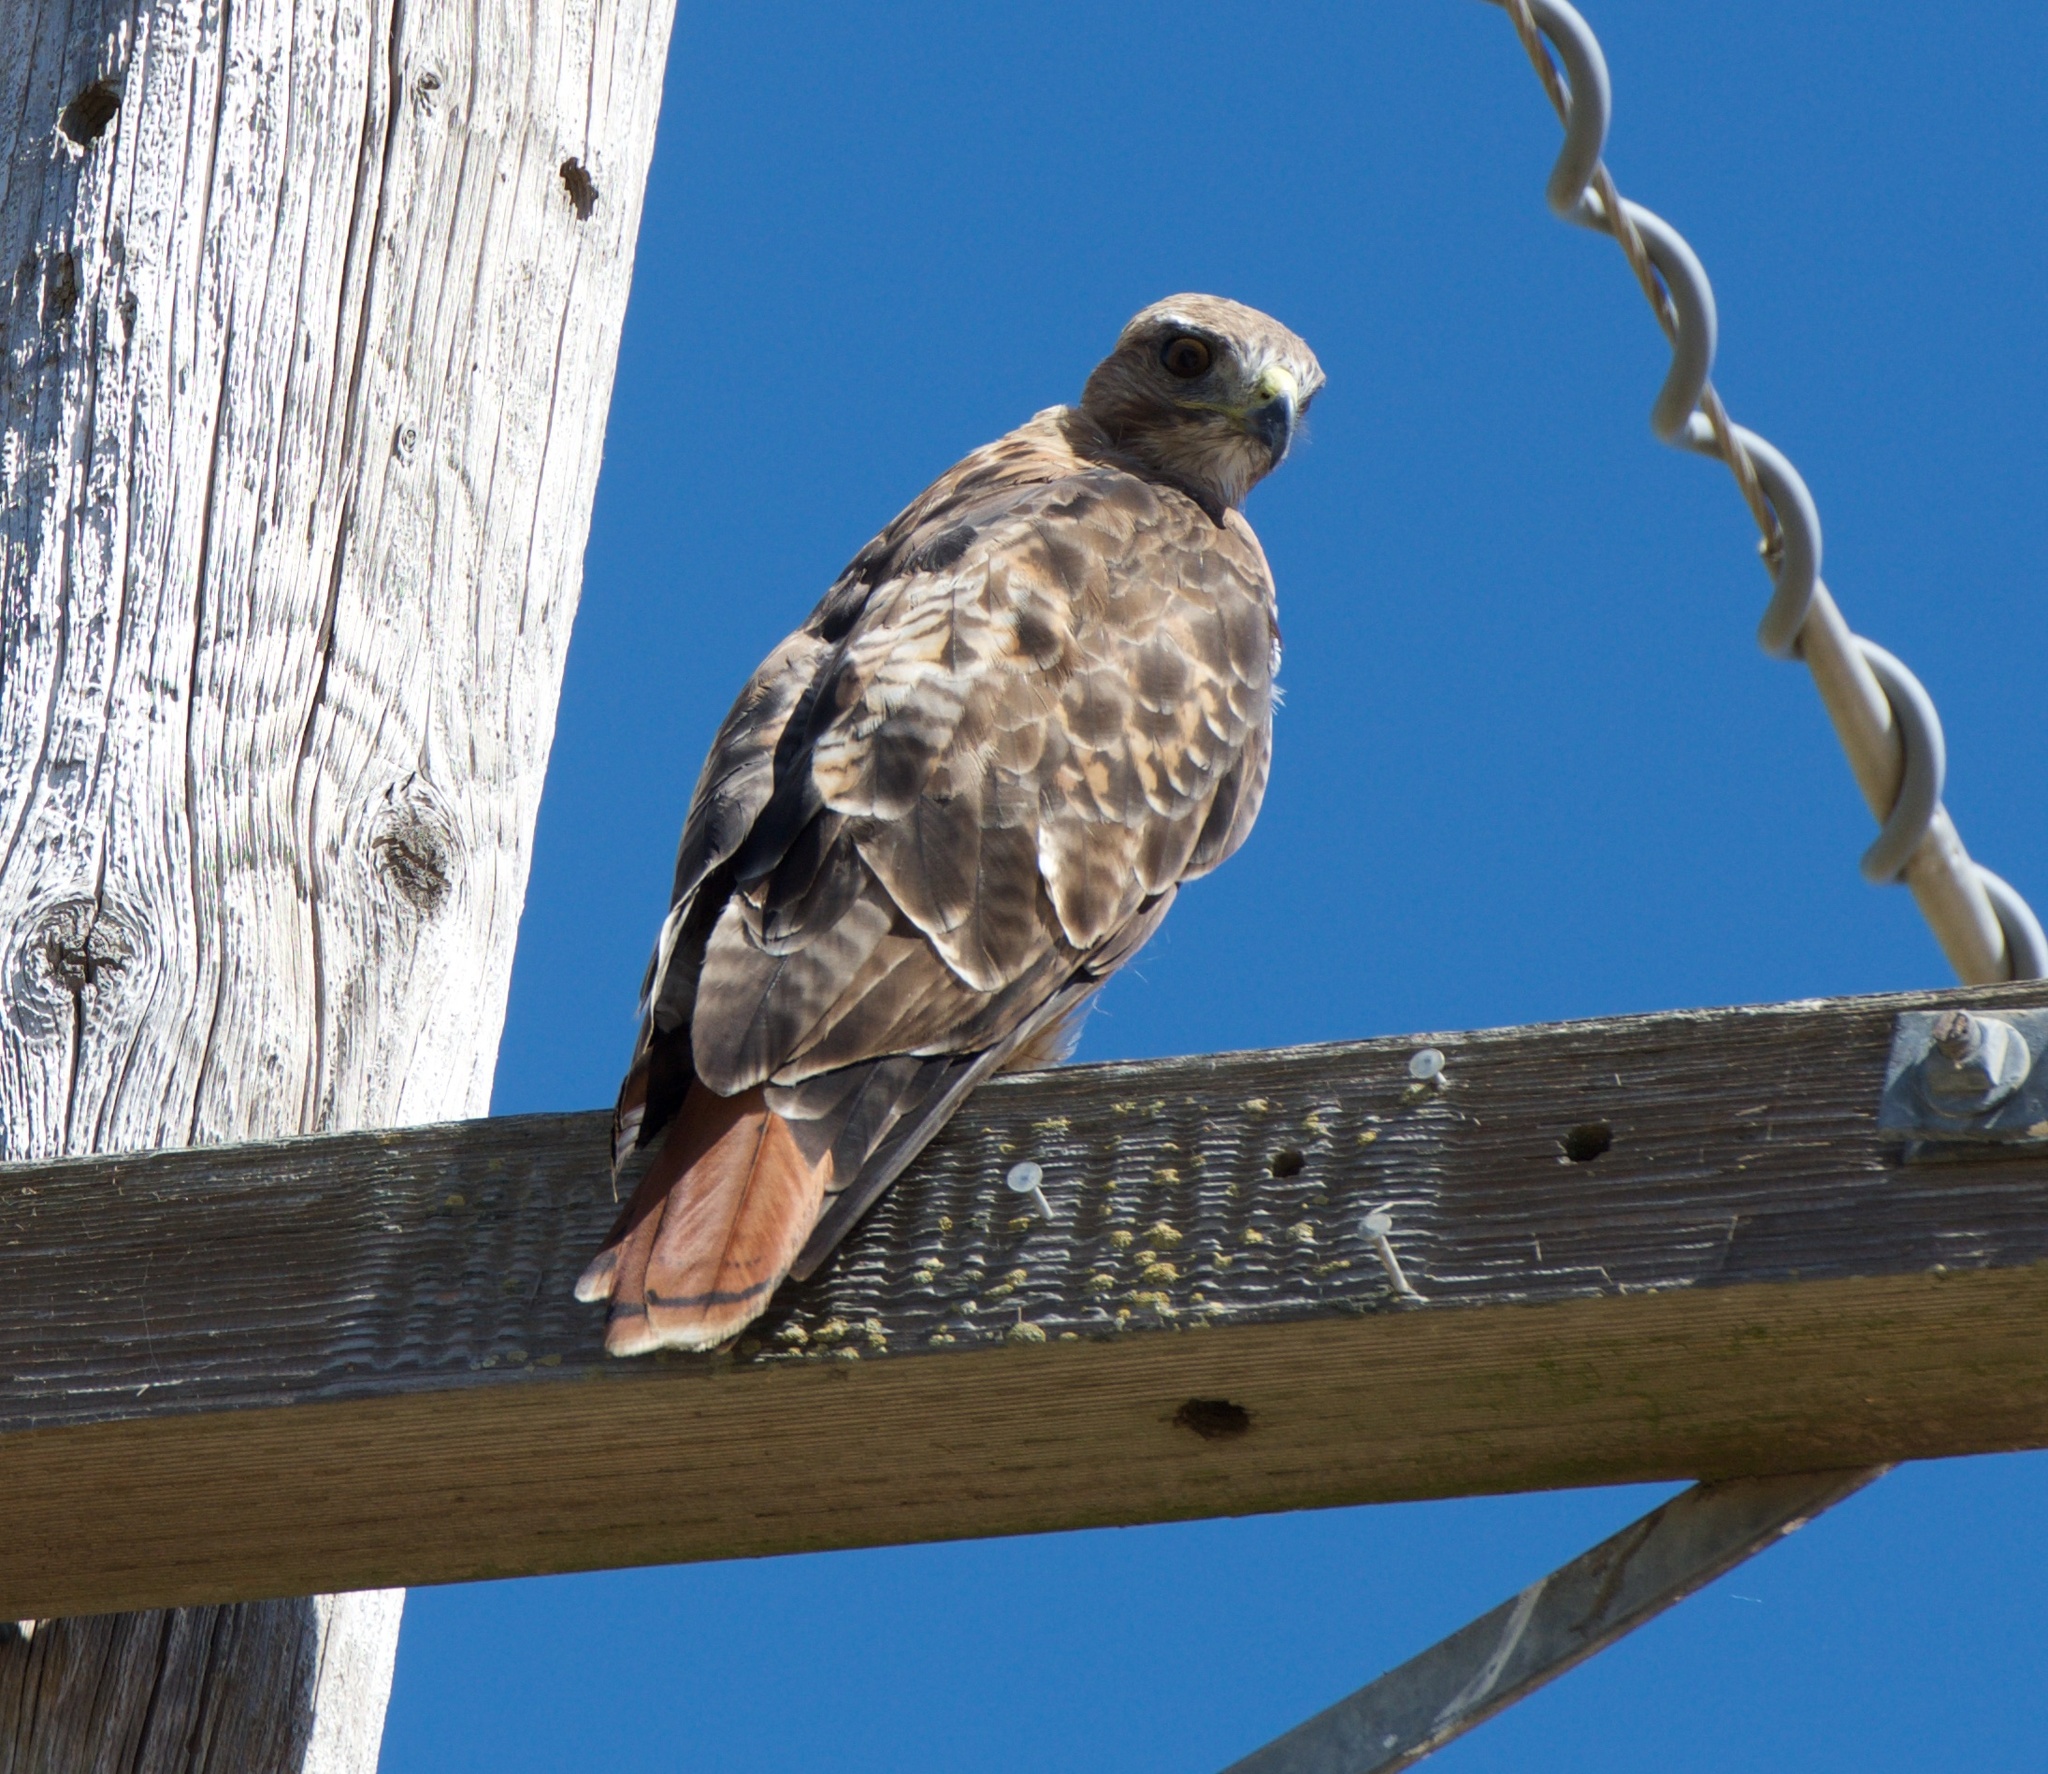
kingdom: Animalia
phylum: Chordata
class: Aves
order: Accipitriformes
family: Accipitridae
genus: Buteo
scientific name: Buteo jamaicensis
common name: Red-tailed hawk
